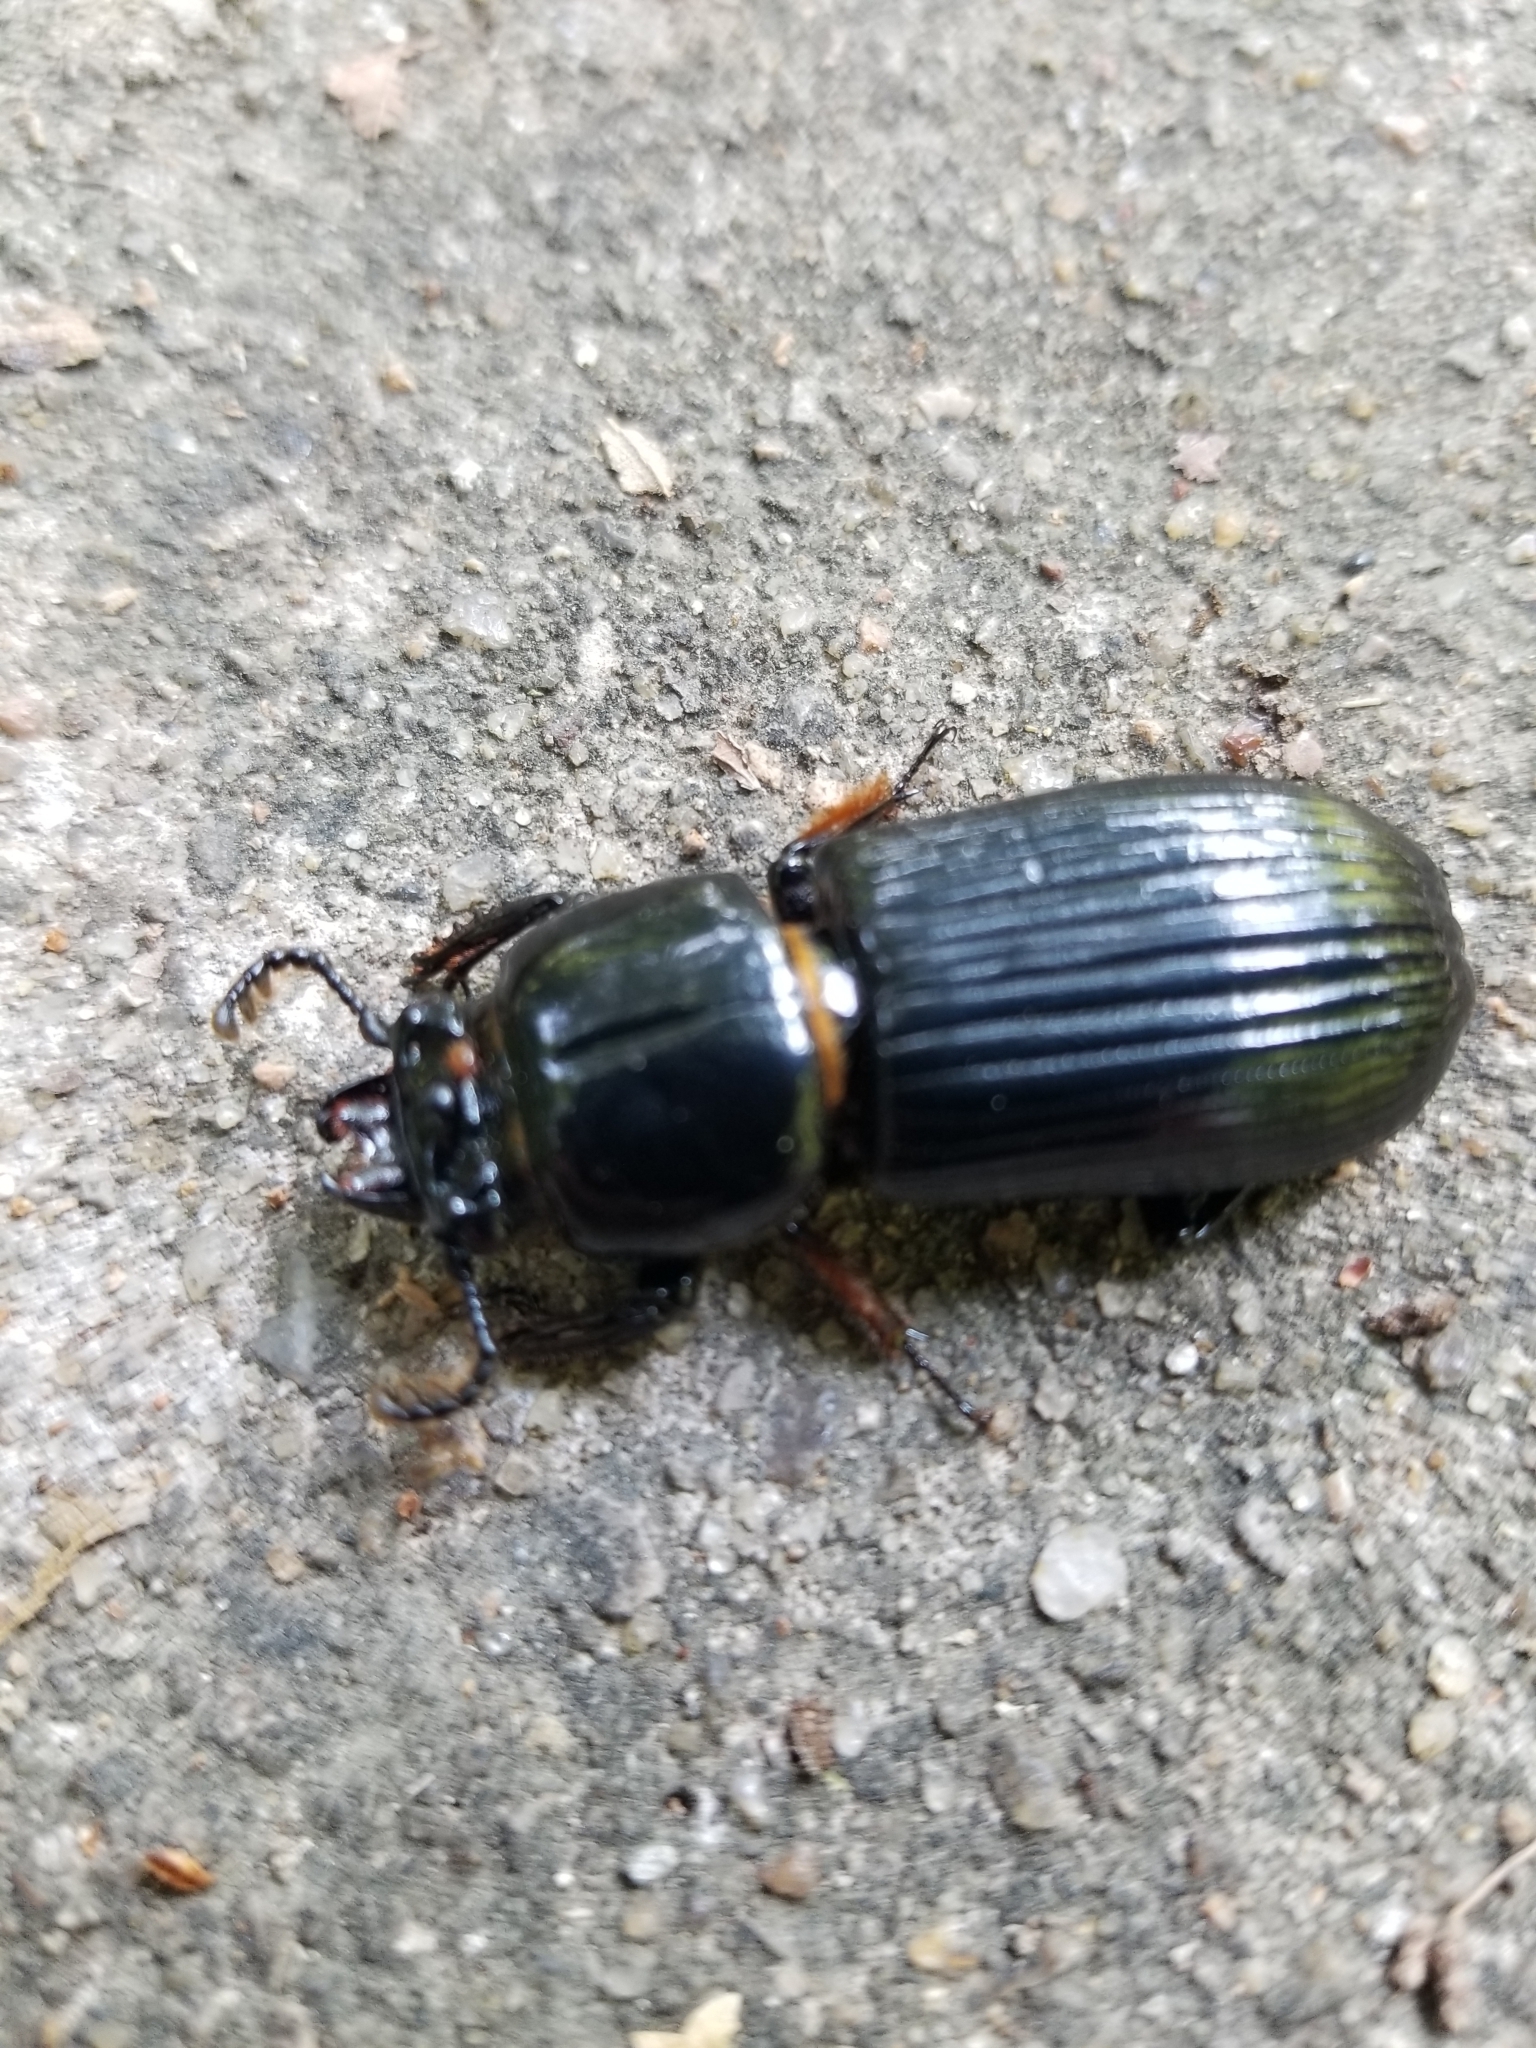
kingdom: Animalia
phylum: Arthropoda
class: Insecta
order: Coleoptera
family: Passalidae
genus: Odontotaenius
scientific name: Odontotaenius disjunctus
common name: Patent leather beetle
